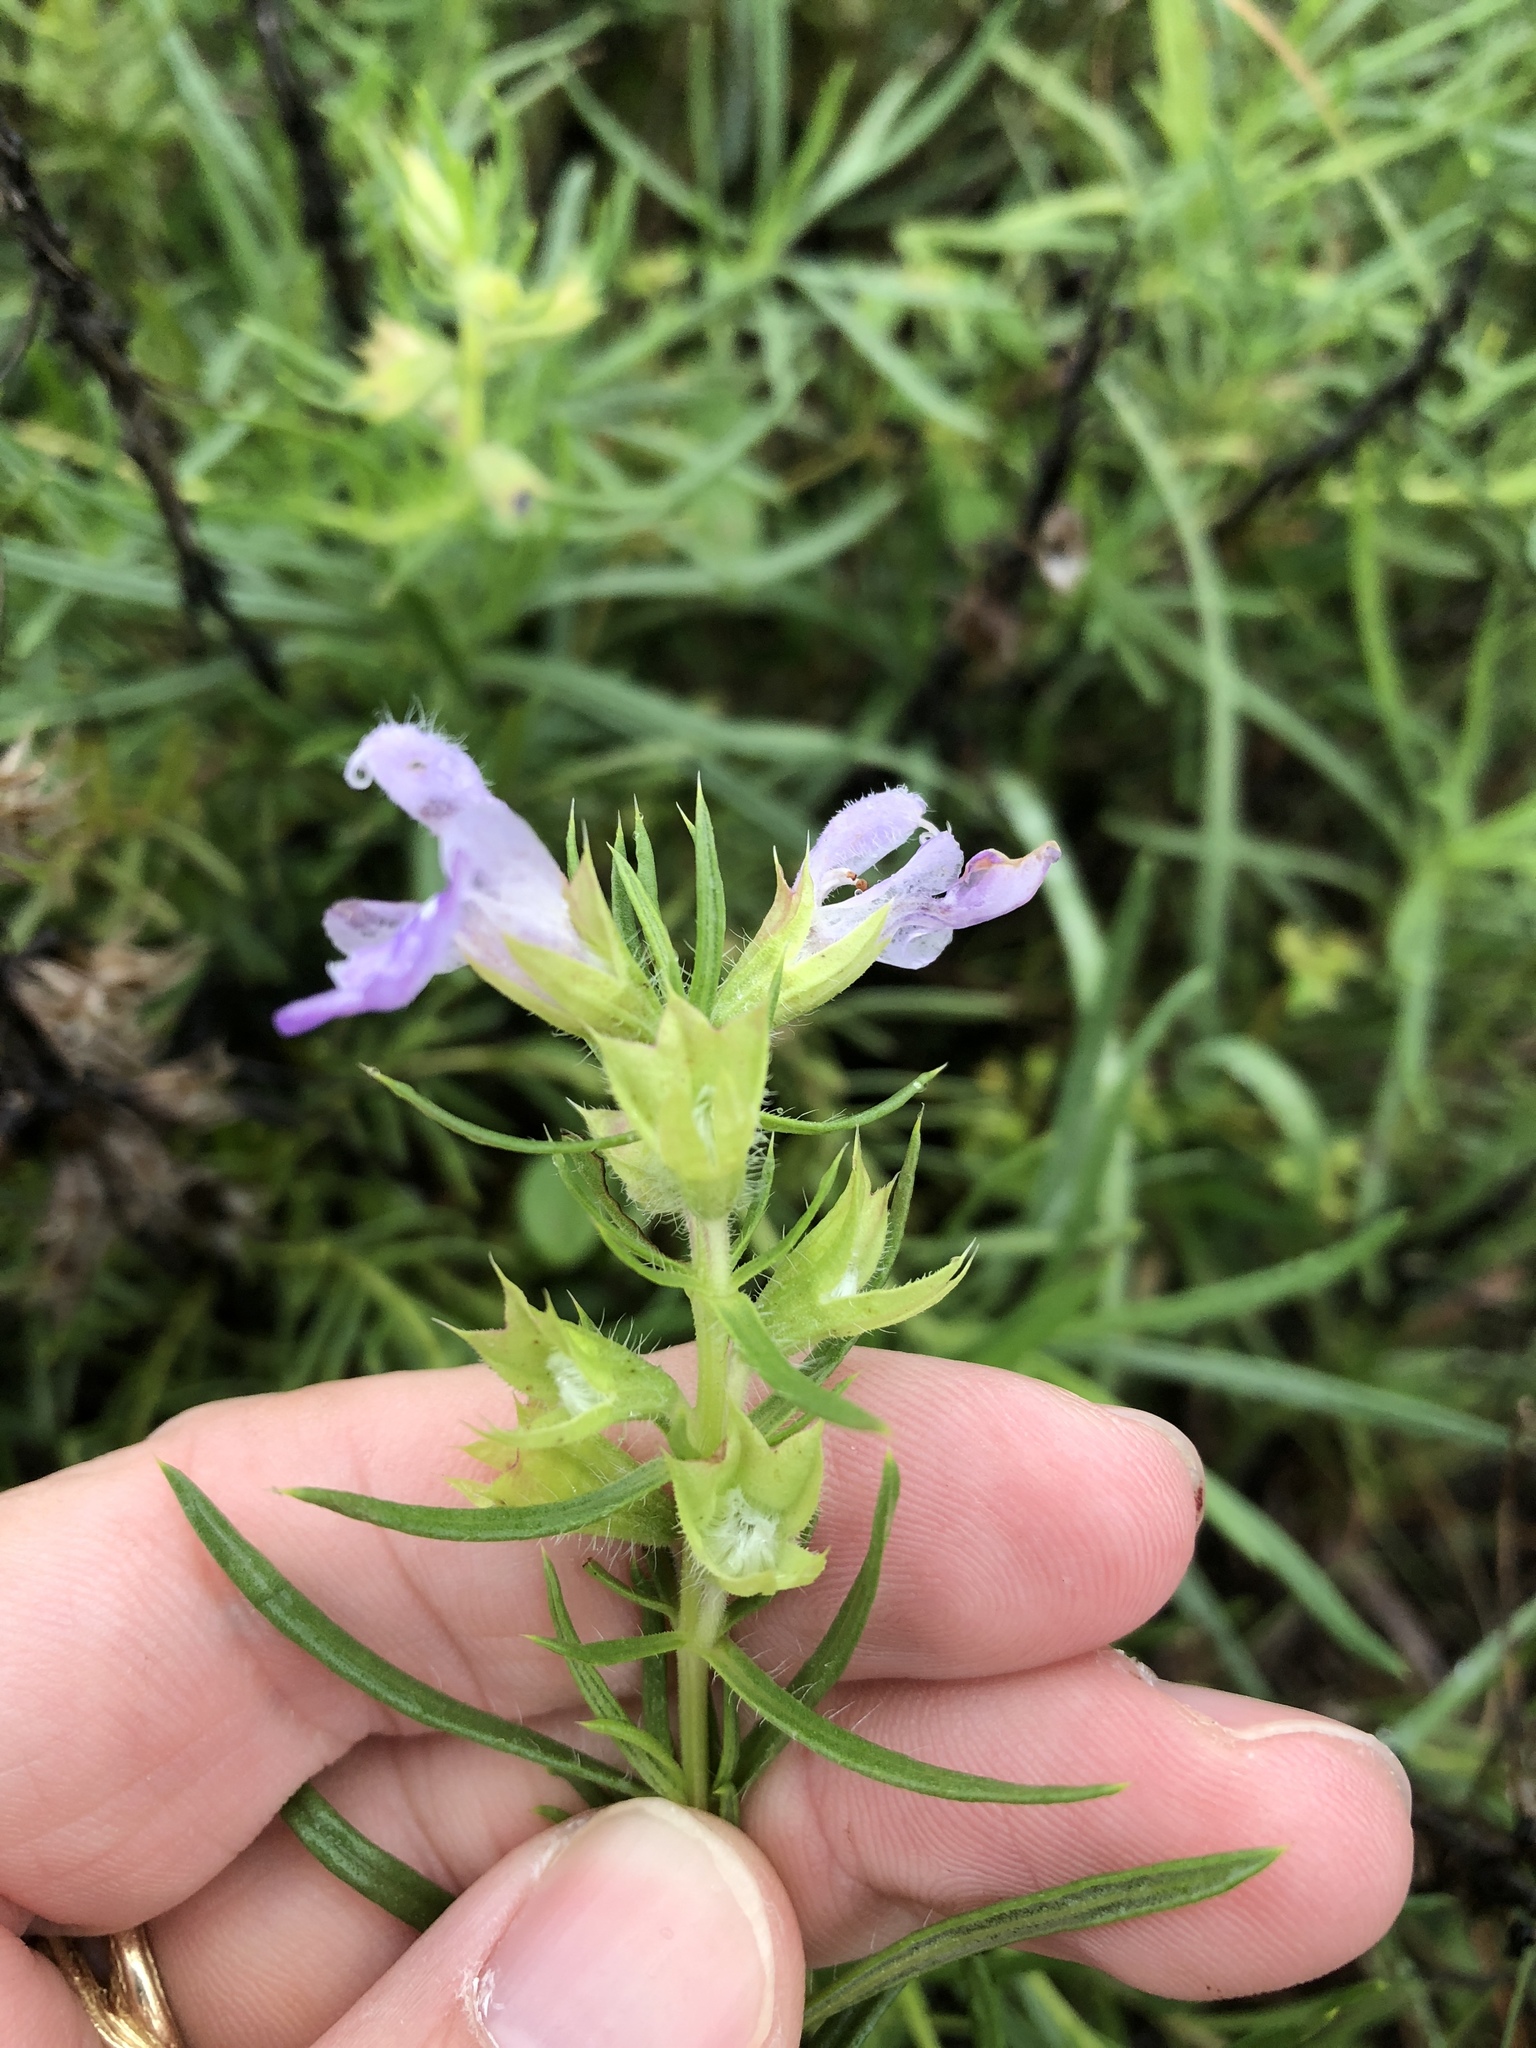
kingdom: Plantae
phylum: Tracheophyta
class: Magnoliopsida
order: Lamiales
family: Lamiaceae
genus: Salvia
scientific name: Salvia engelmannii
